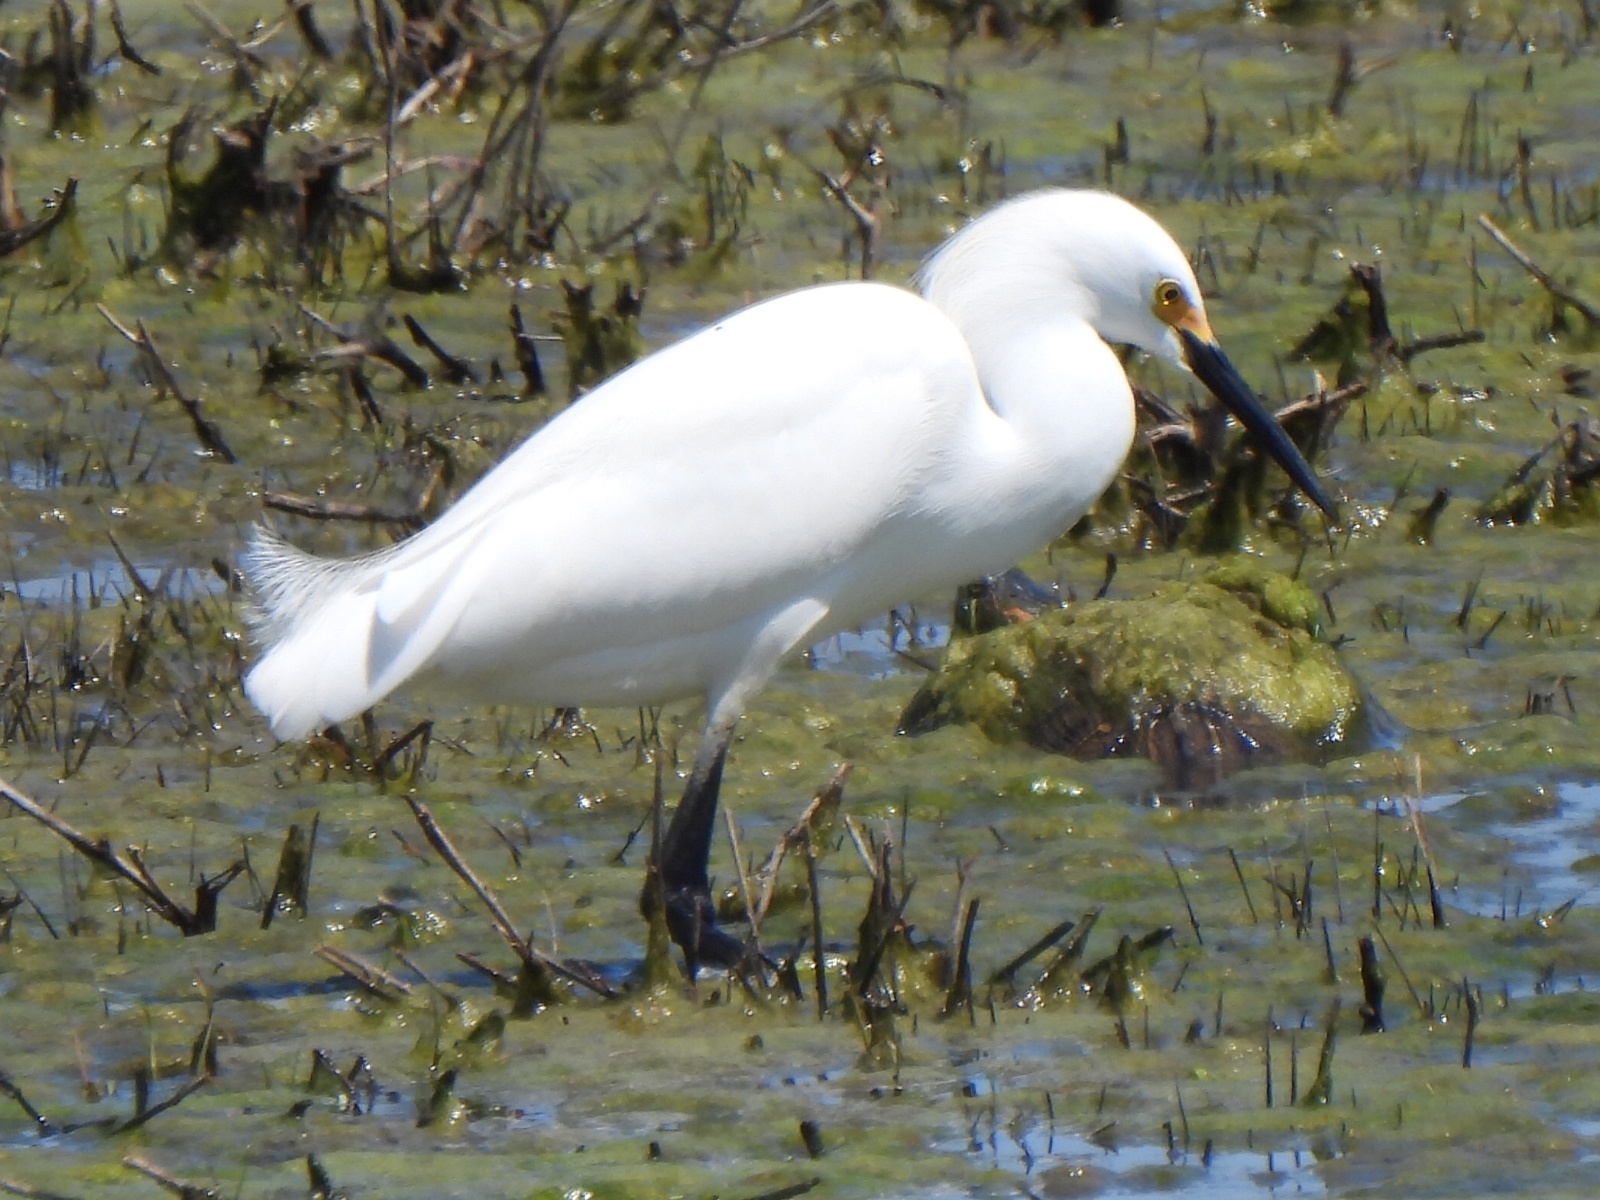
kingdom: Animalia
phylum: Chordata
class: Aves
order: Pelecaniformes
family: Ardeidae
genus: Egretta
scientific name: Egretta thula
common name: Snowy egret
